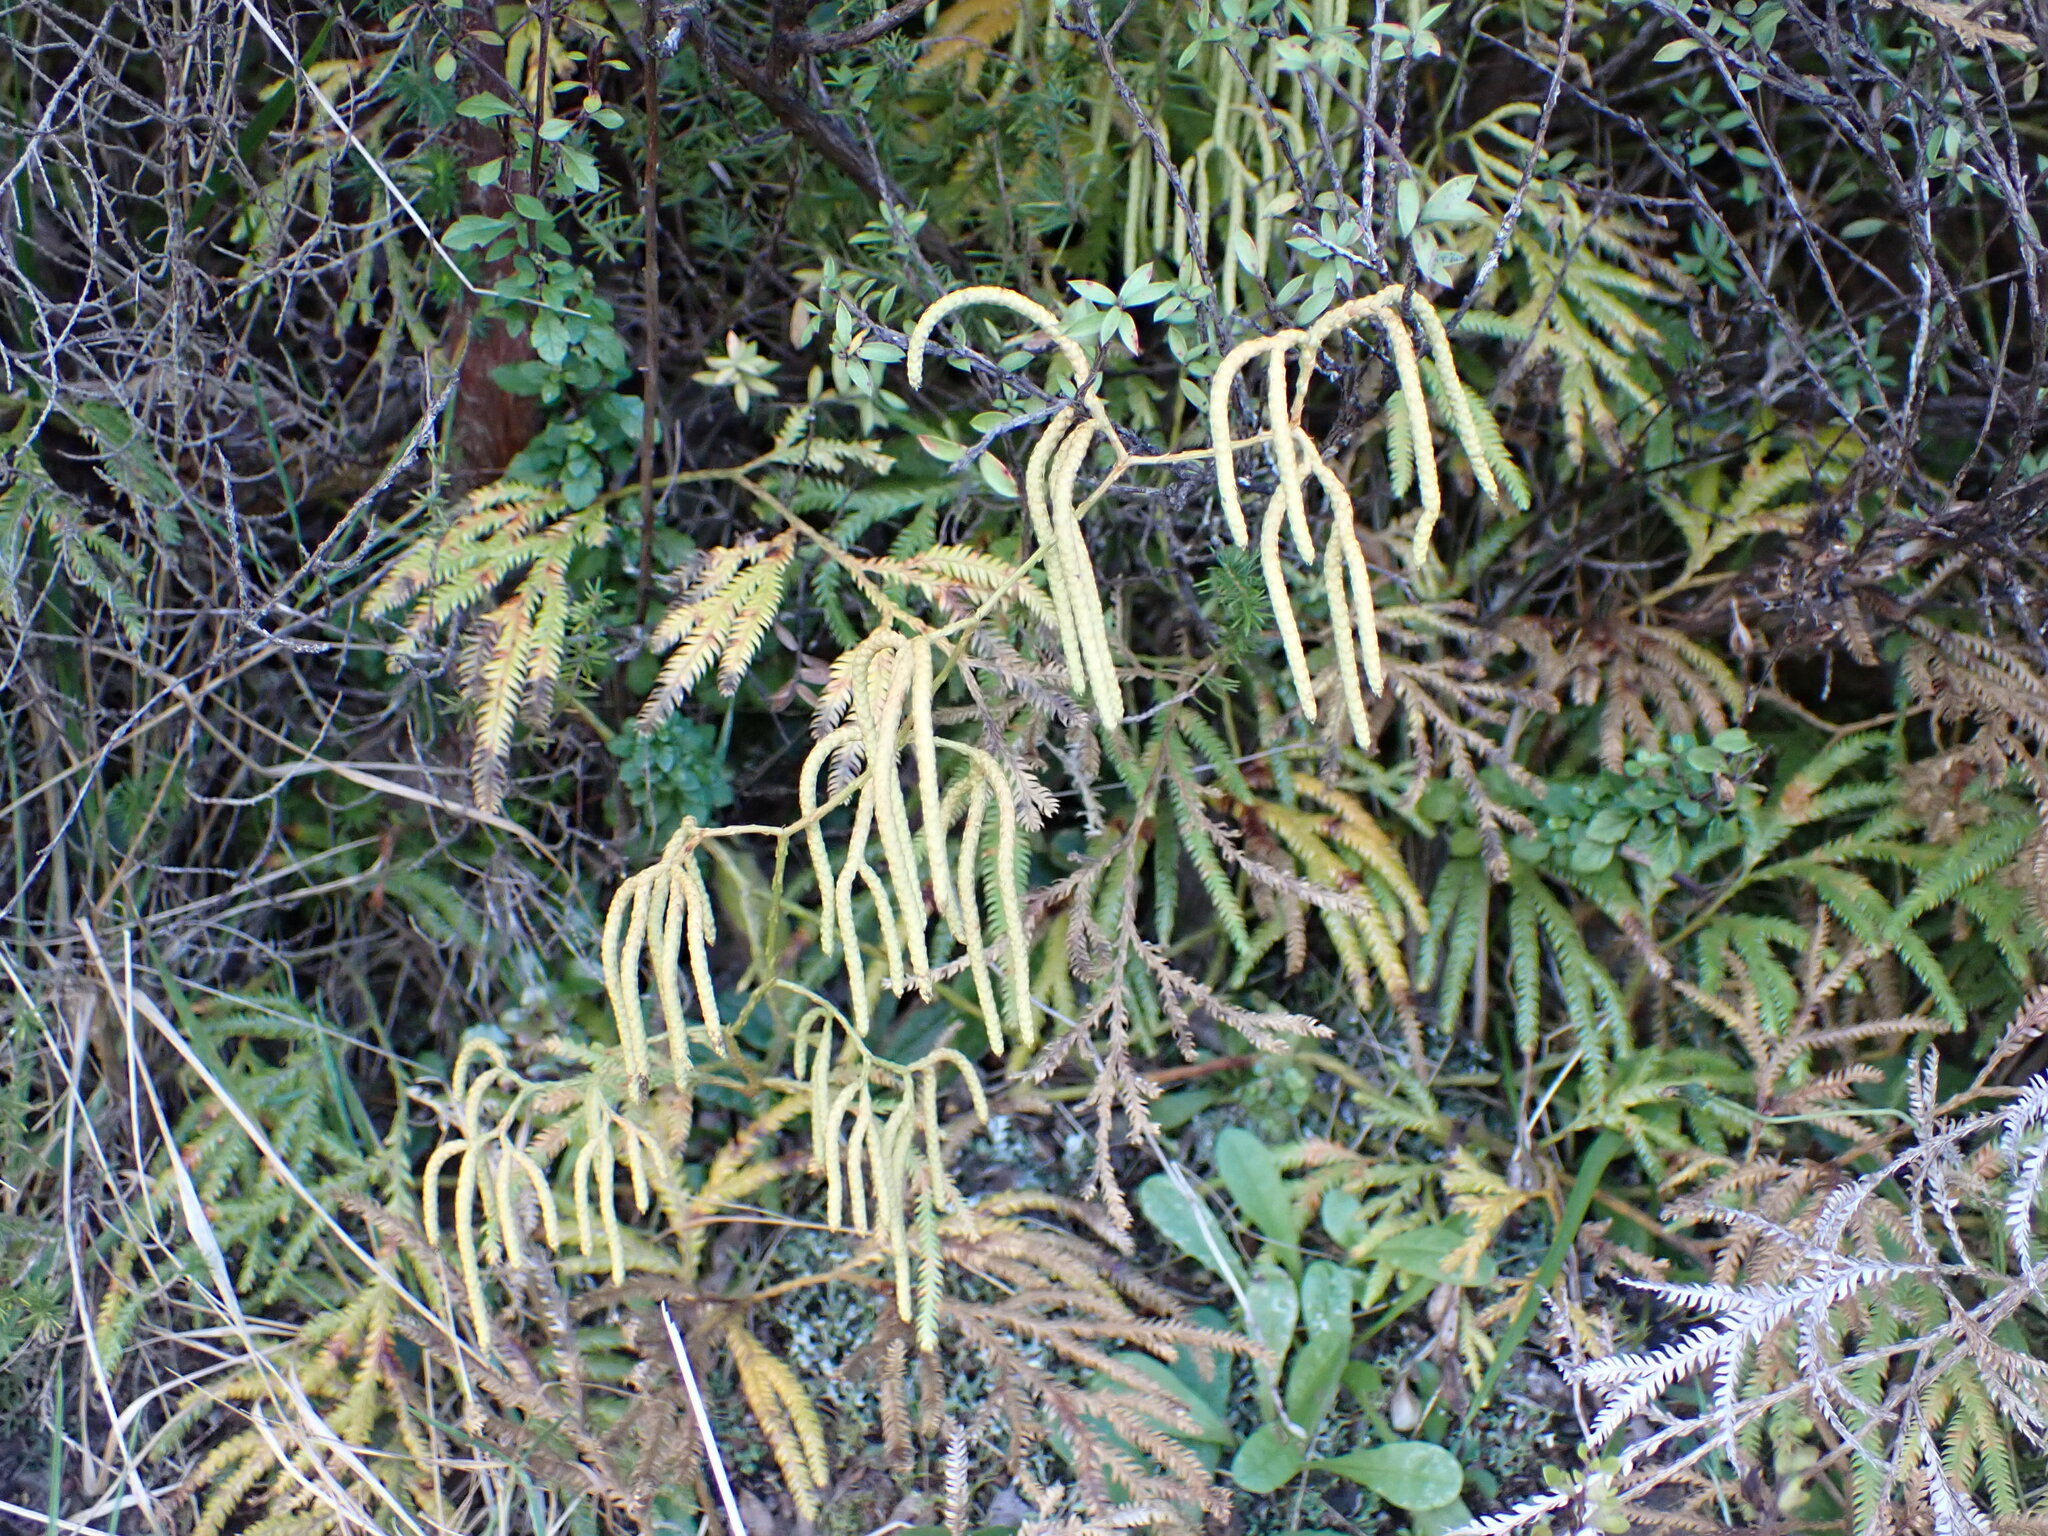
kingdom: Plantae
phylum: Tracheophyta
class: Lycopodiopsida
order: Lycopodiales
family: Lycopodiaceae
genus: Lycopodium
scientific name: Lycopodium volubile
